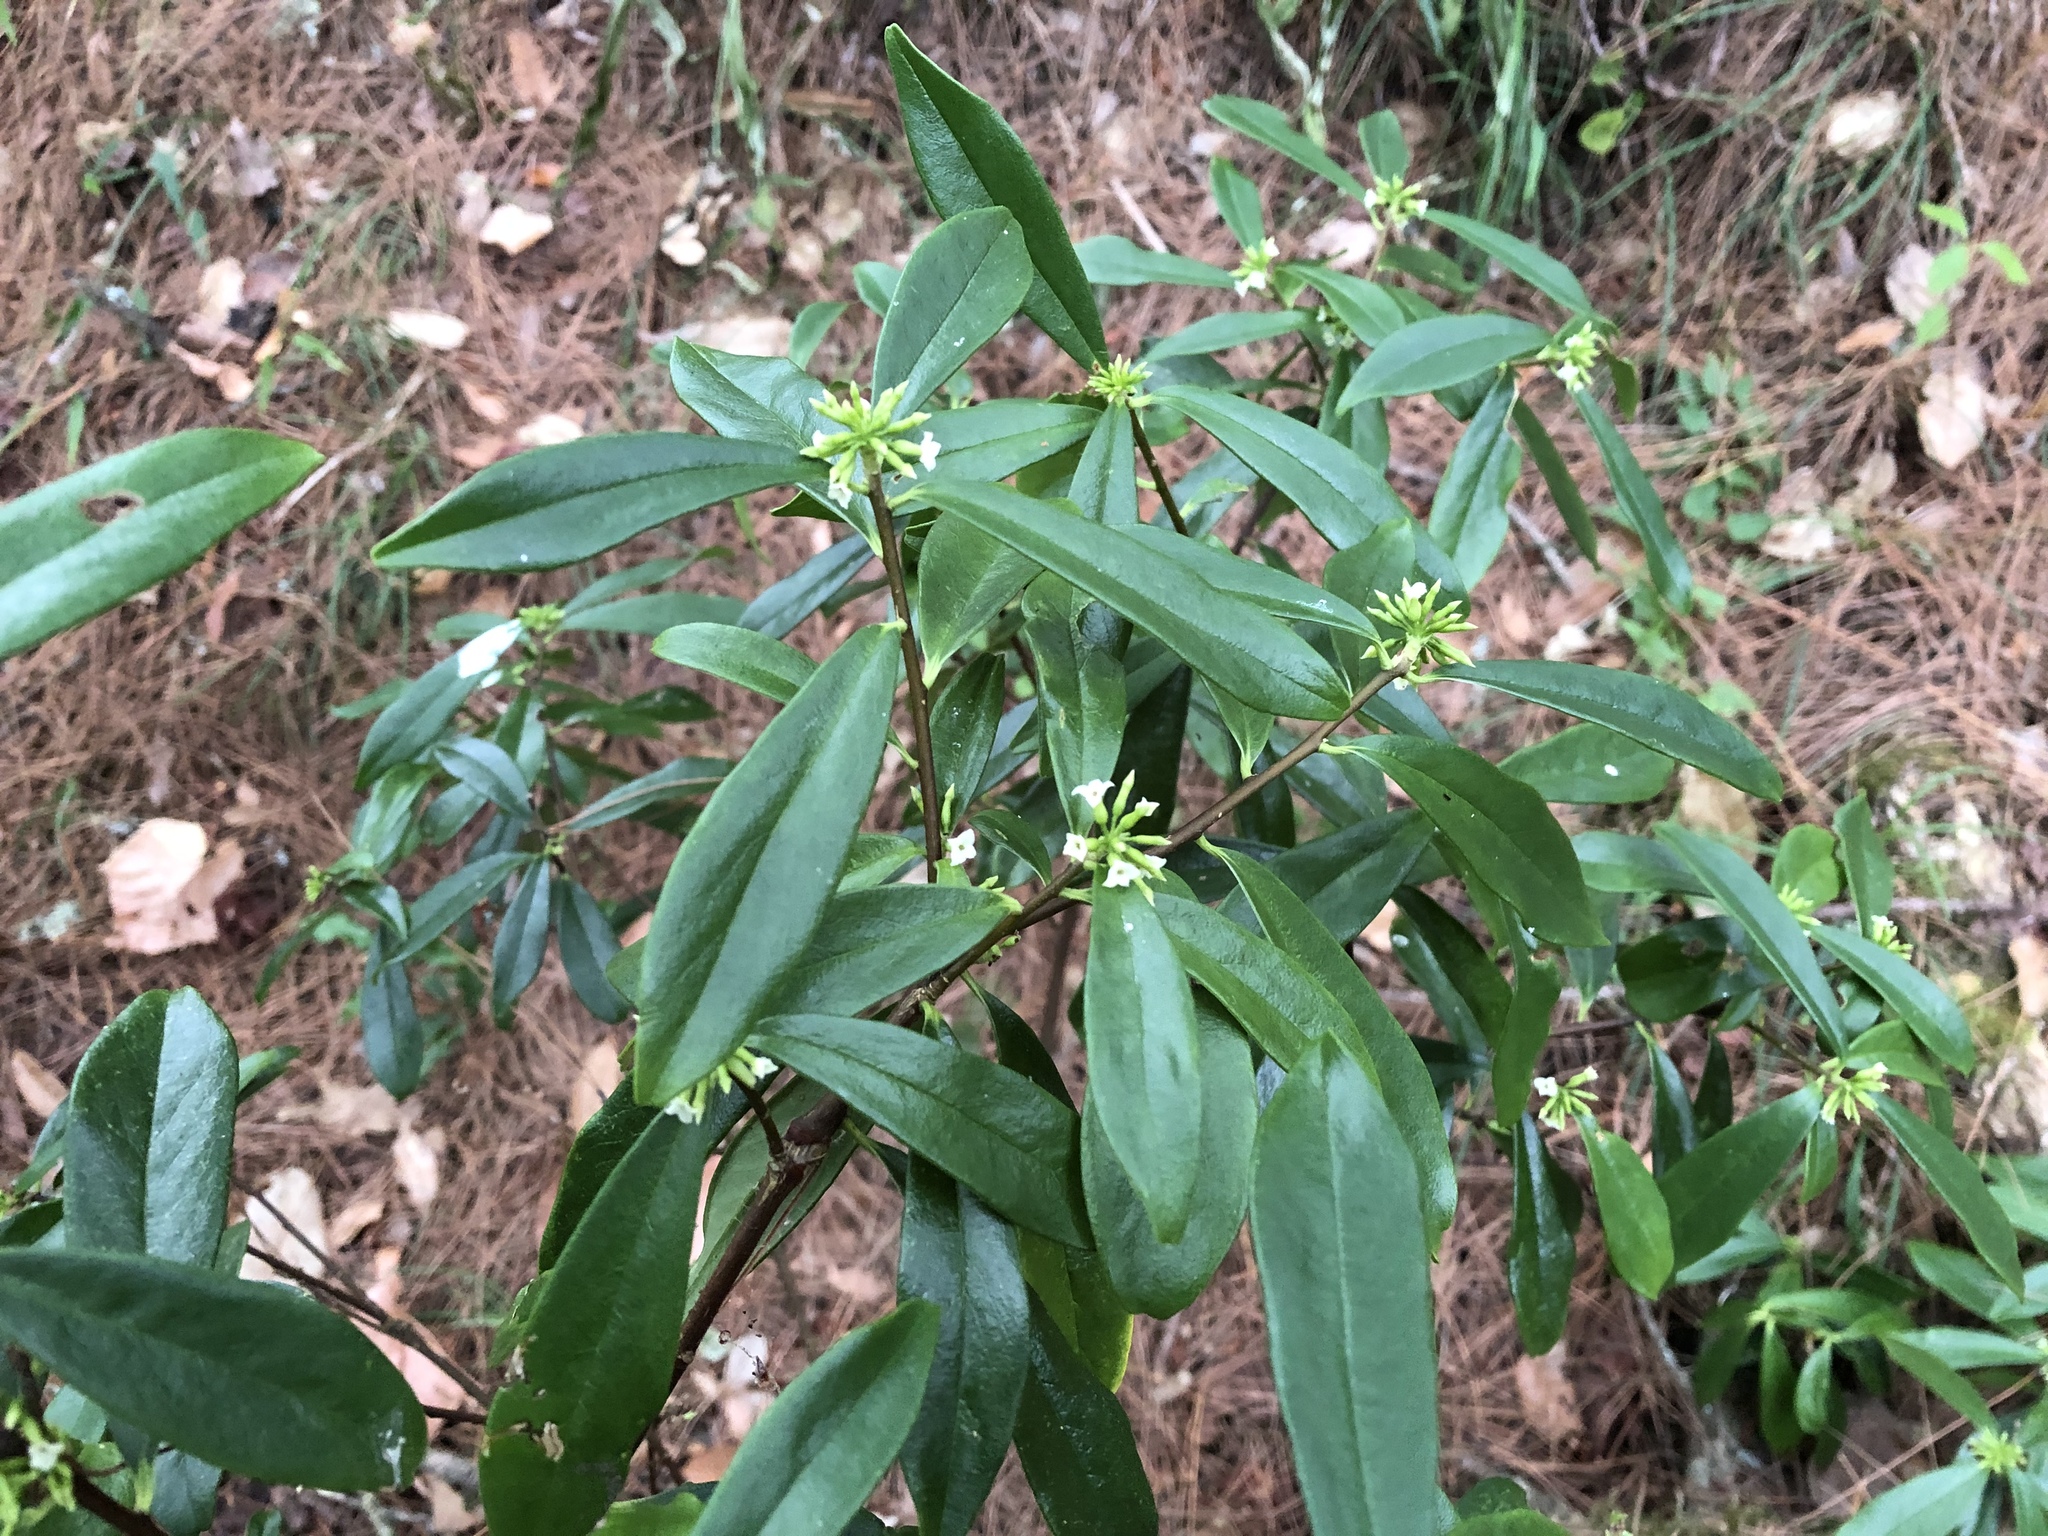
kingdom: Plantae
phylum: Tracheophyta
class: Magnoliopsida
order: Malvales
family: Thymelaeaceae
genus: Daphne
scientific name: Daphne arisanensis
